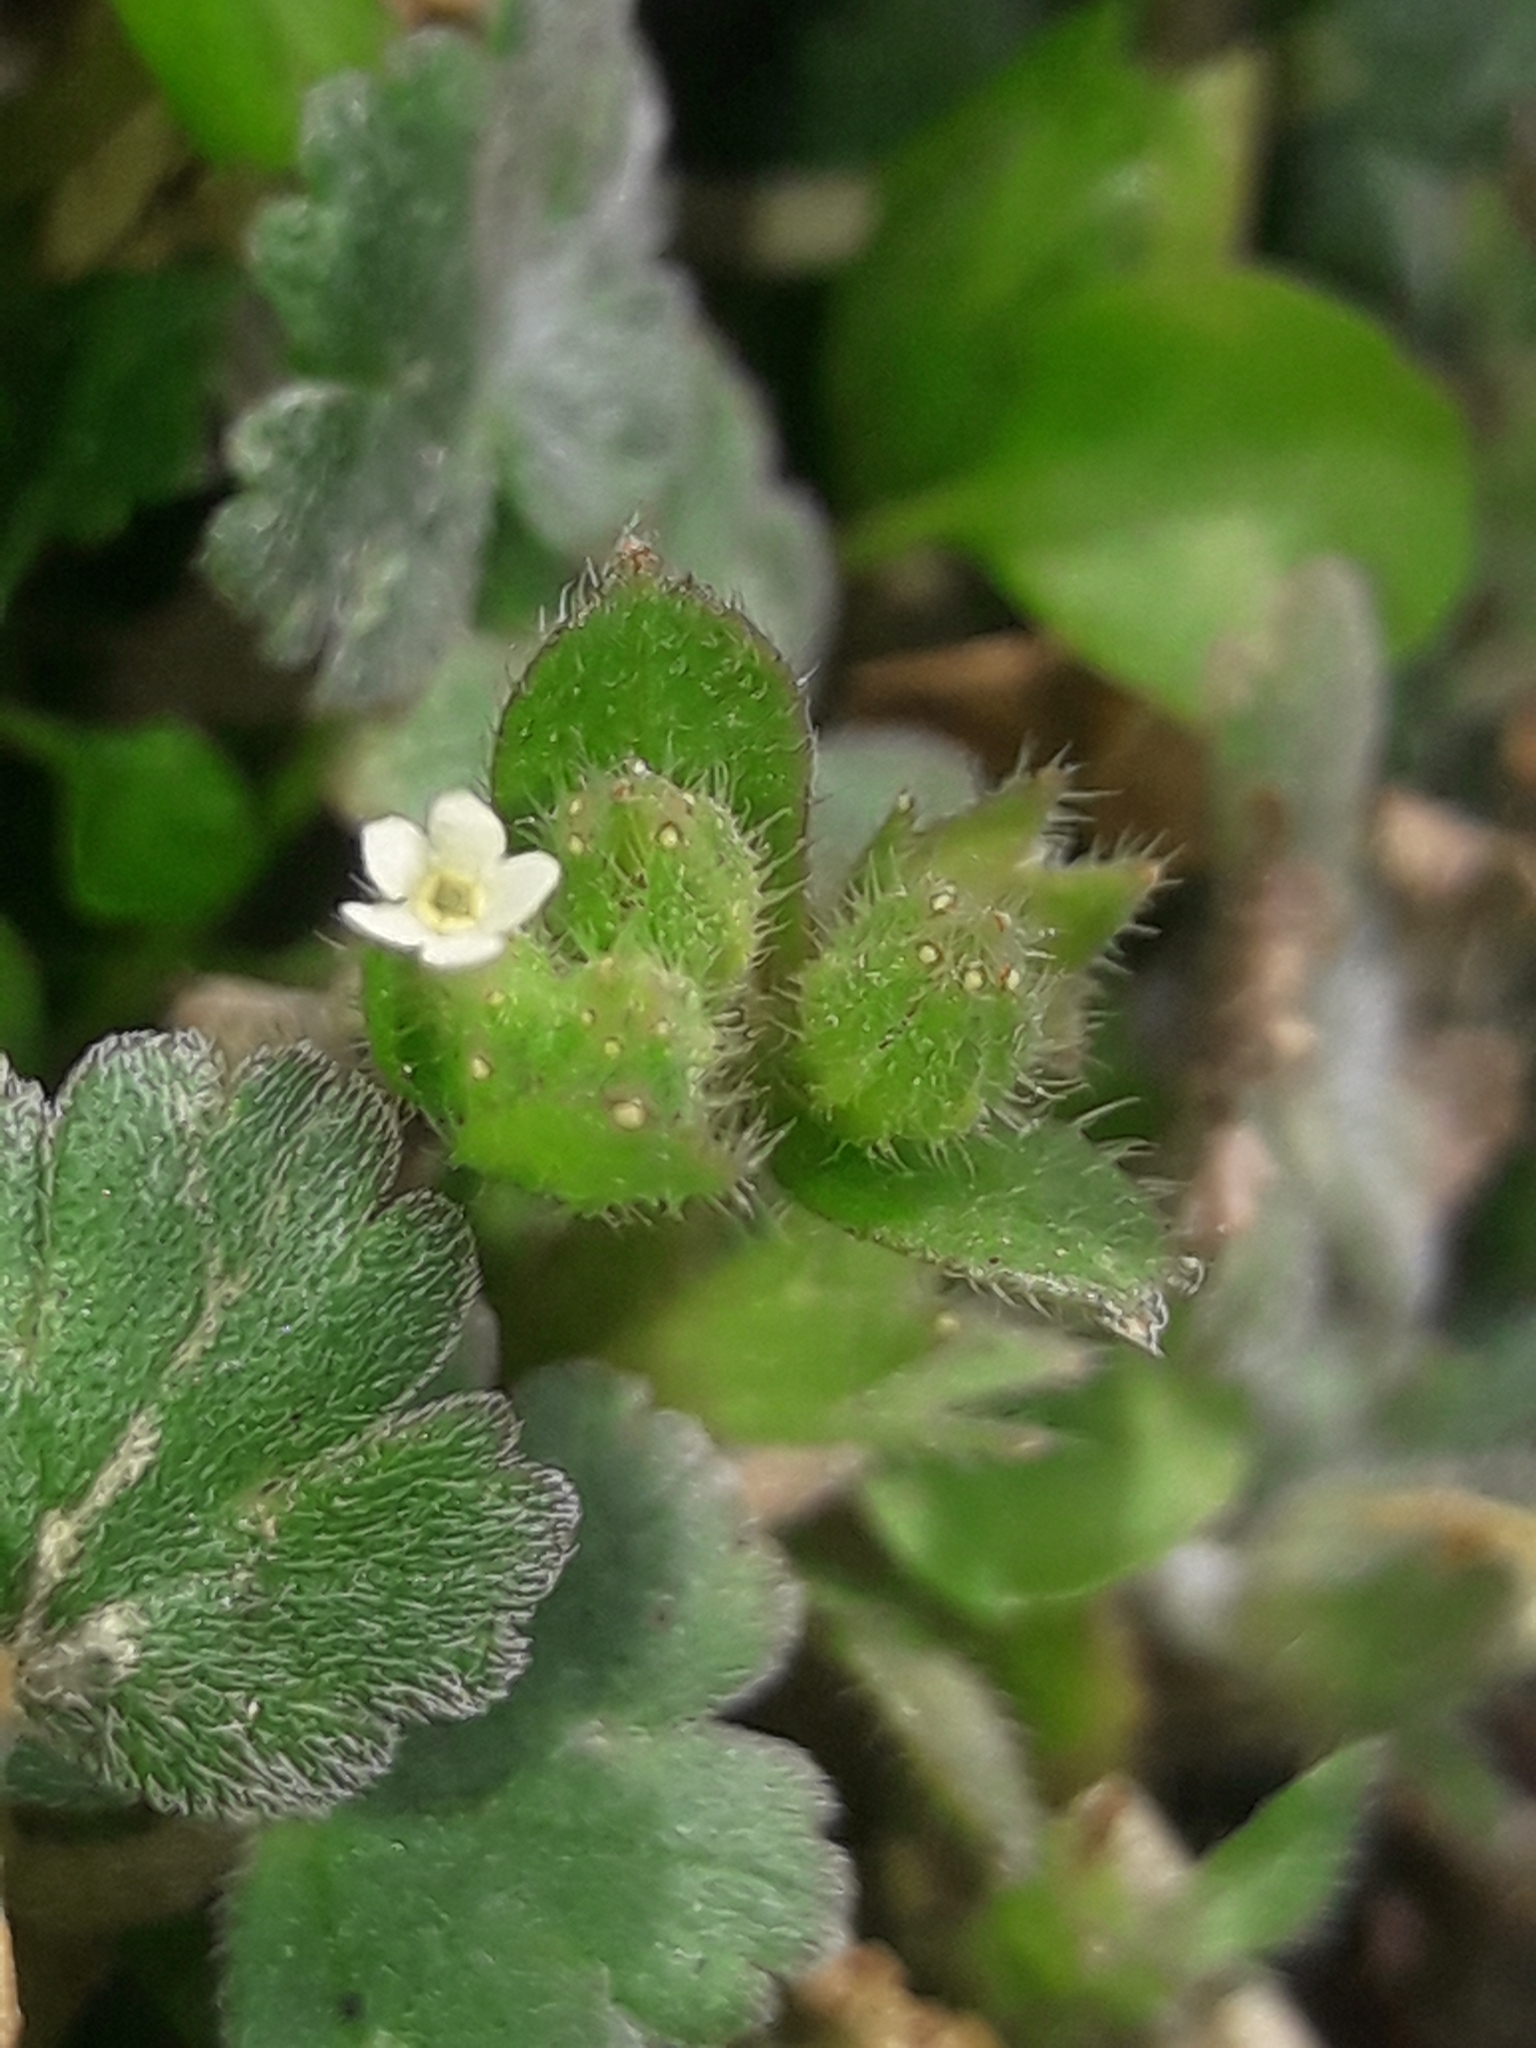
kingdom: Plantae
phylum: Tracheophyta
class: Magnoliopsida
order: Boraginales
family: Boraginaceae
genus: Myosotis
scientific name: Myosotis antarctica
